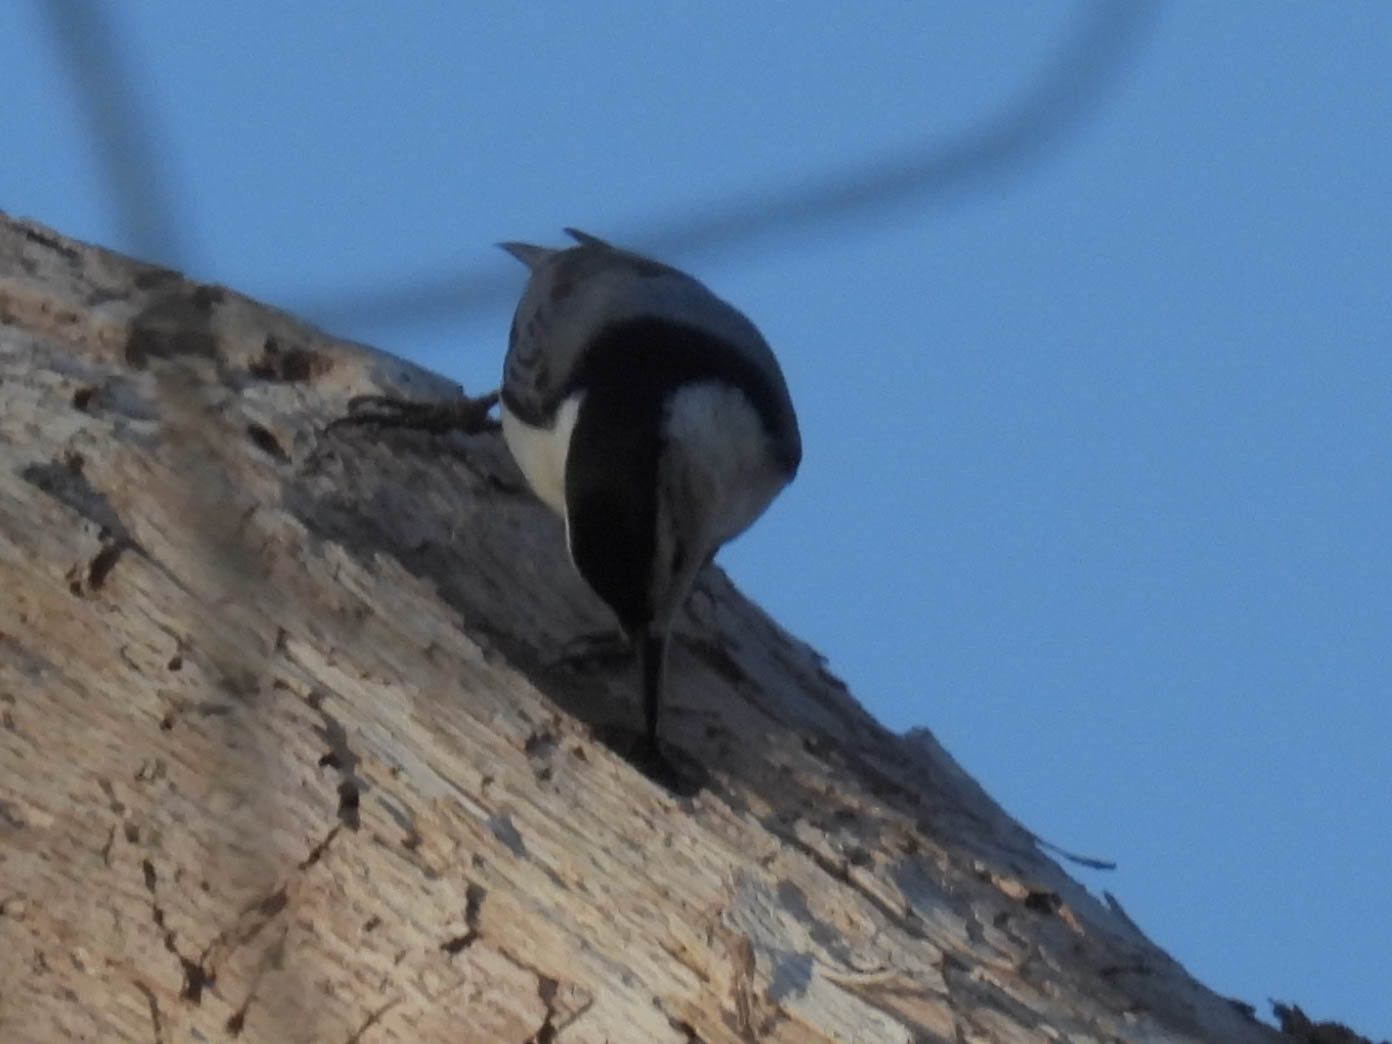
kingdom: Animalia
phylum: Chordata
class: Aves
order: Passeriformes
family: Sittidae
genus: Sitta
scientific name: Sitta carolinensis
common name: White-breasted nuthatch
